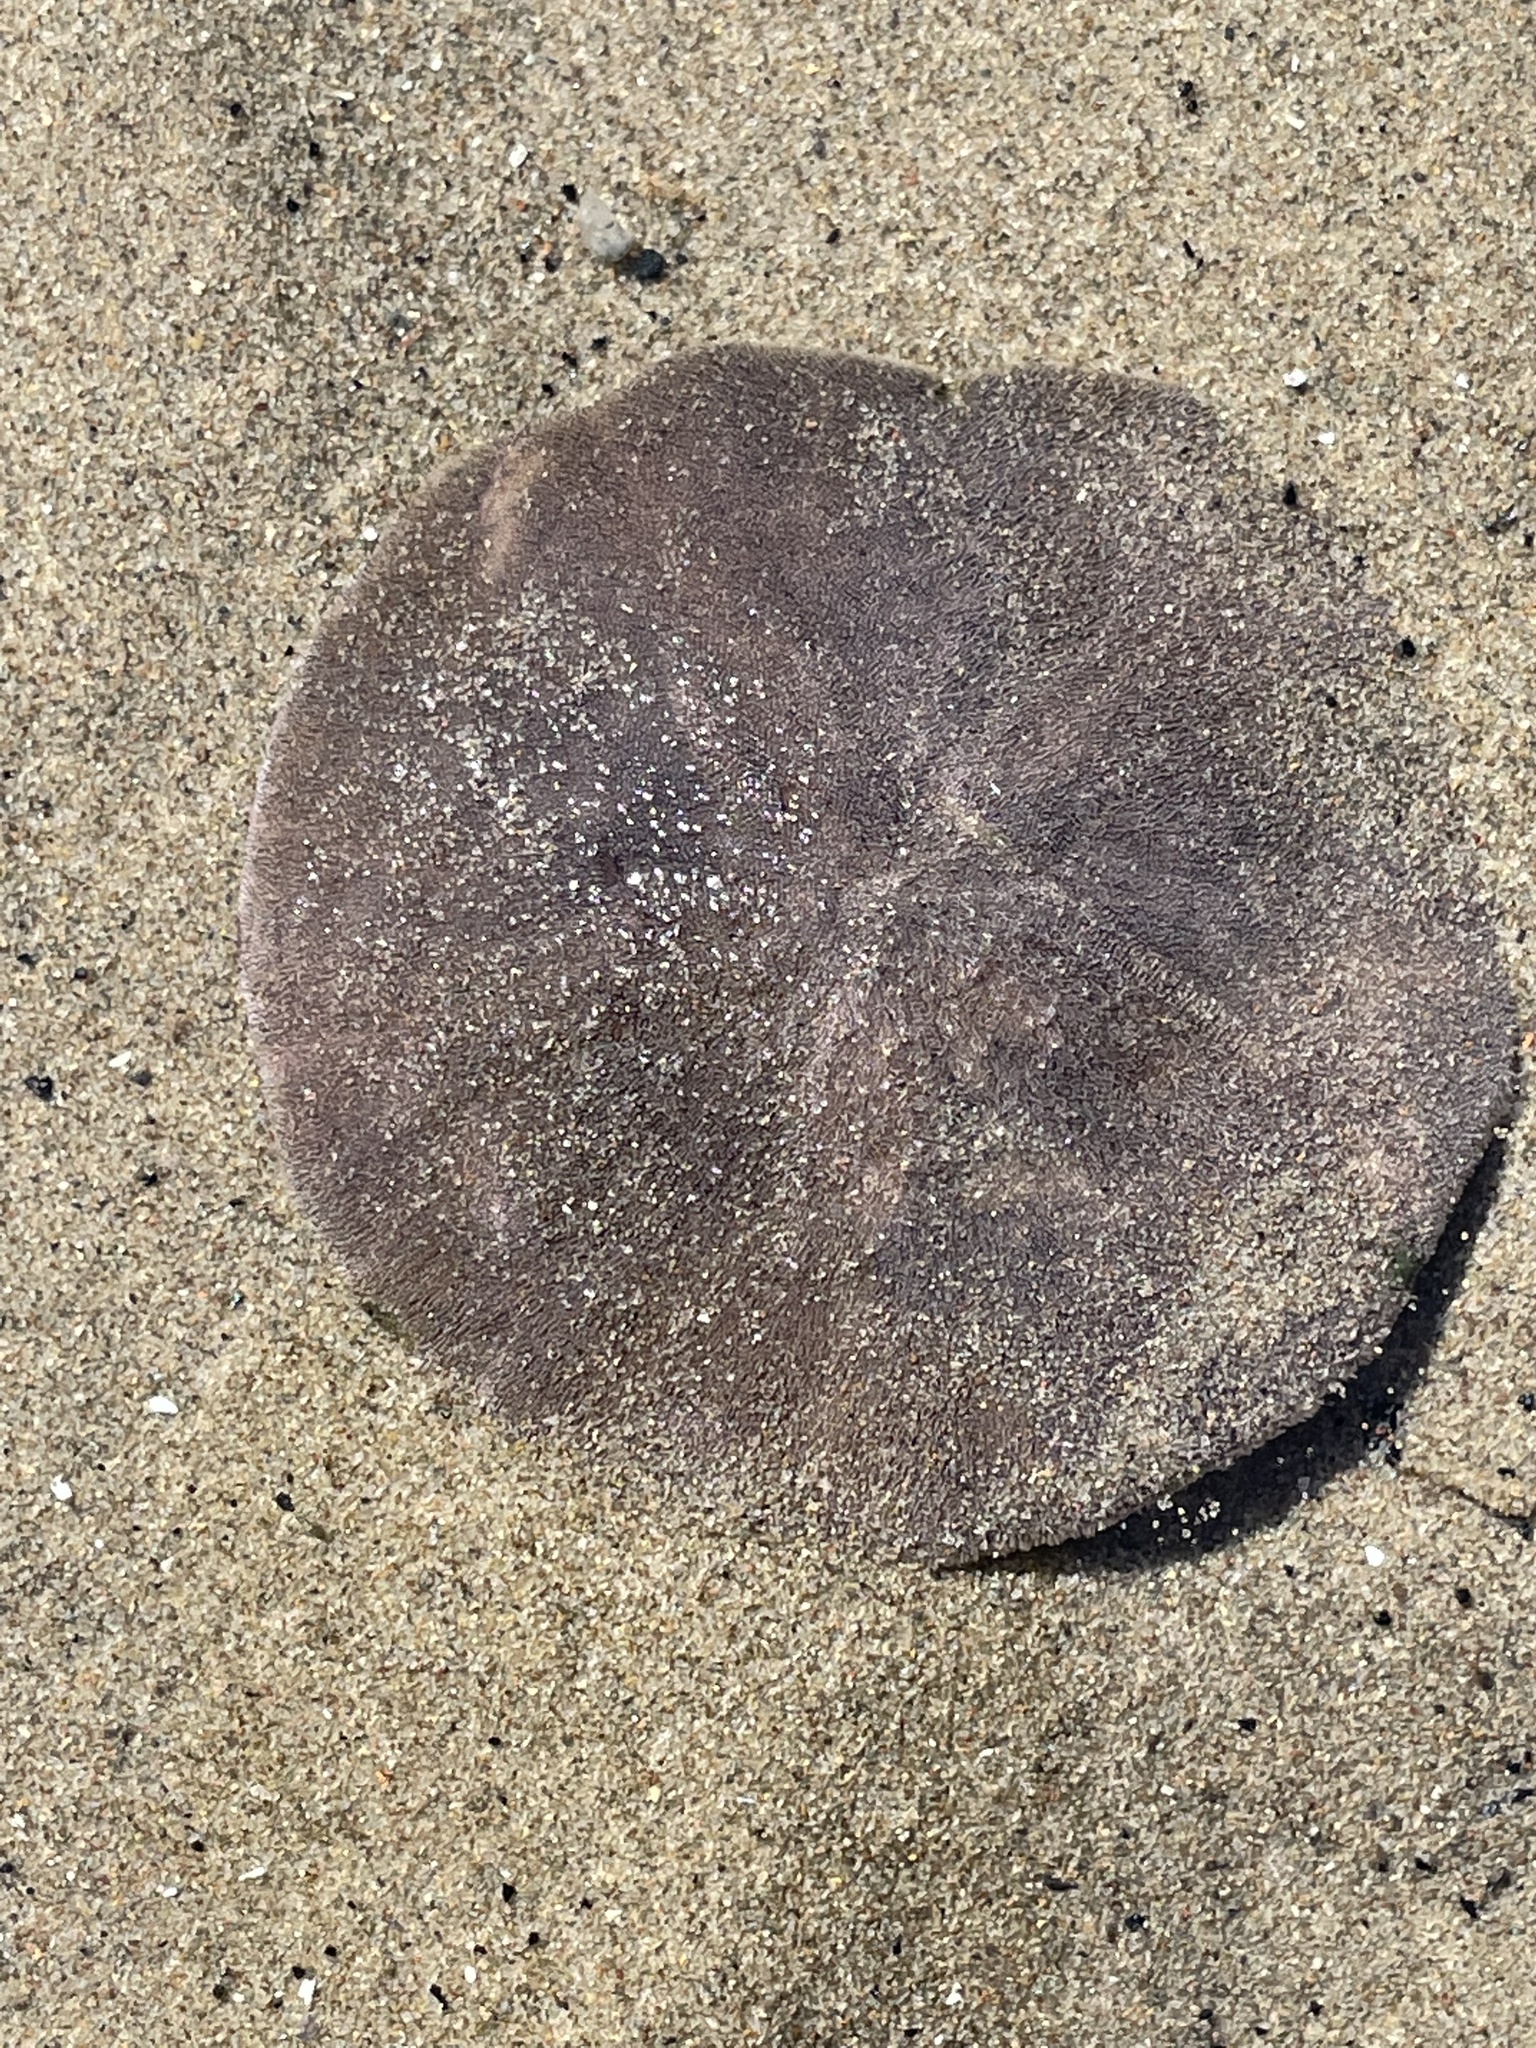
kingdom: Animalia
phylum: Echinodermata
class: Echinoidea
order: Echinolampadacea
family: Echinarachniidae
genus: Echinarachnius
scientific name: Echinarachnius parma
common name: Common sand dollar
